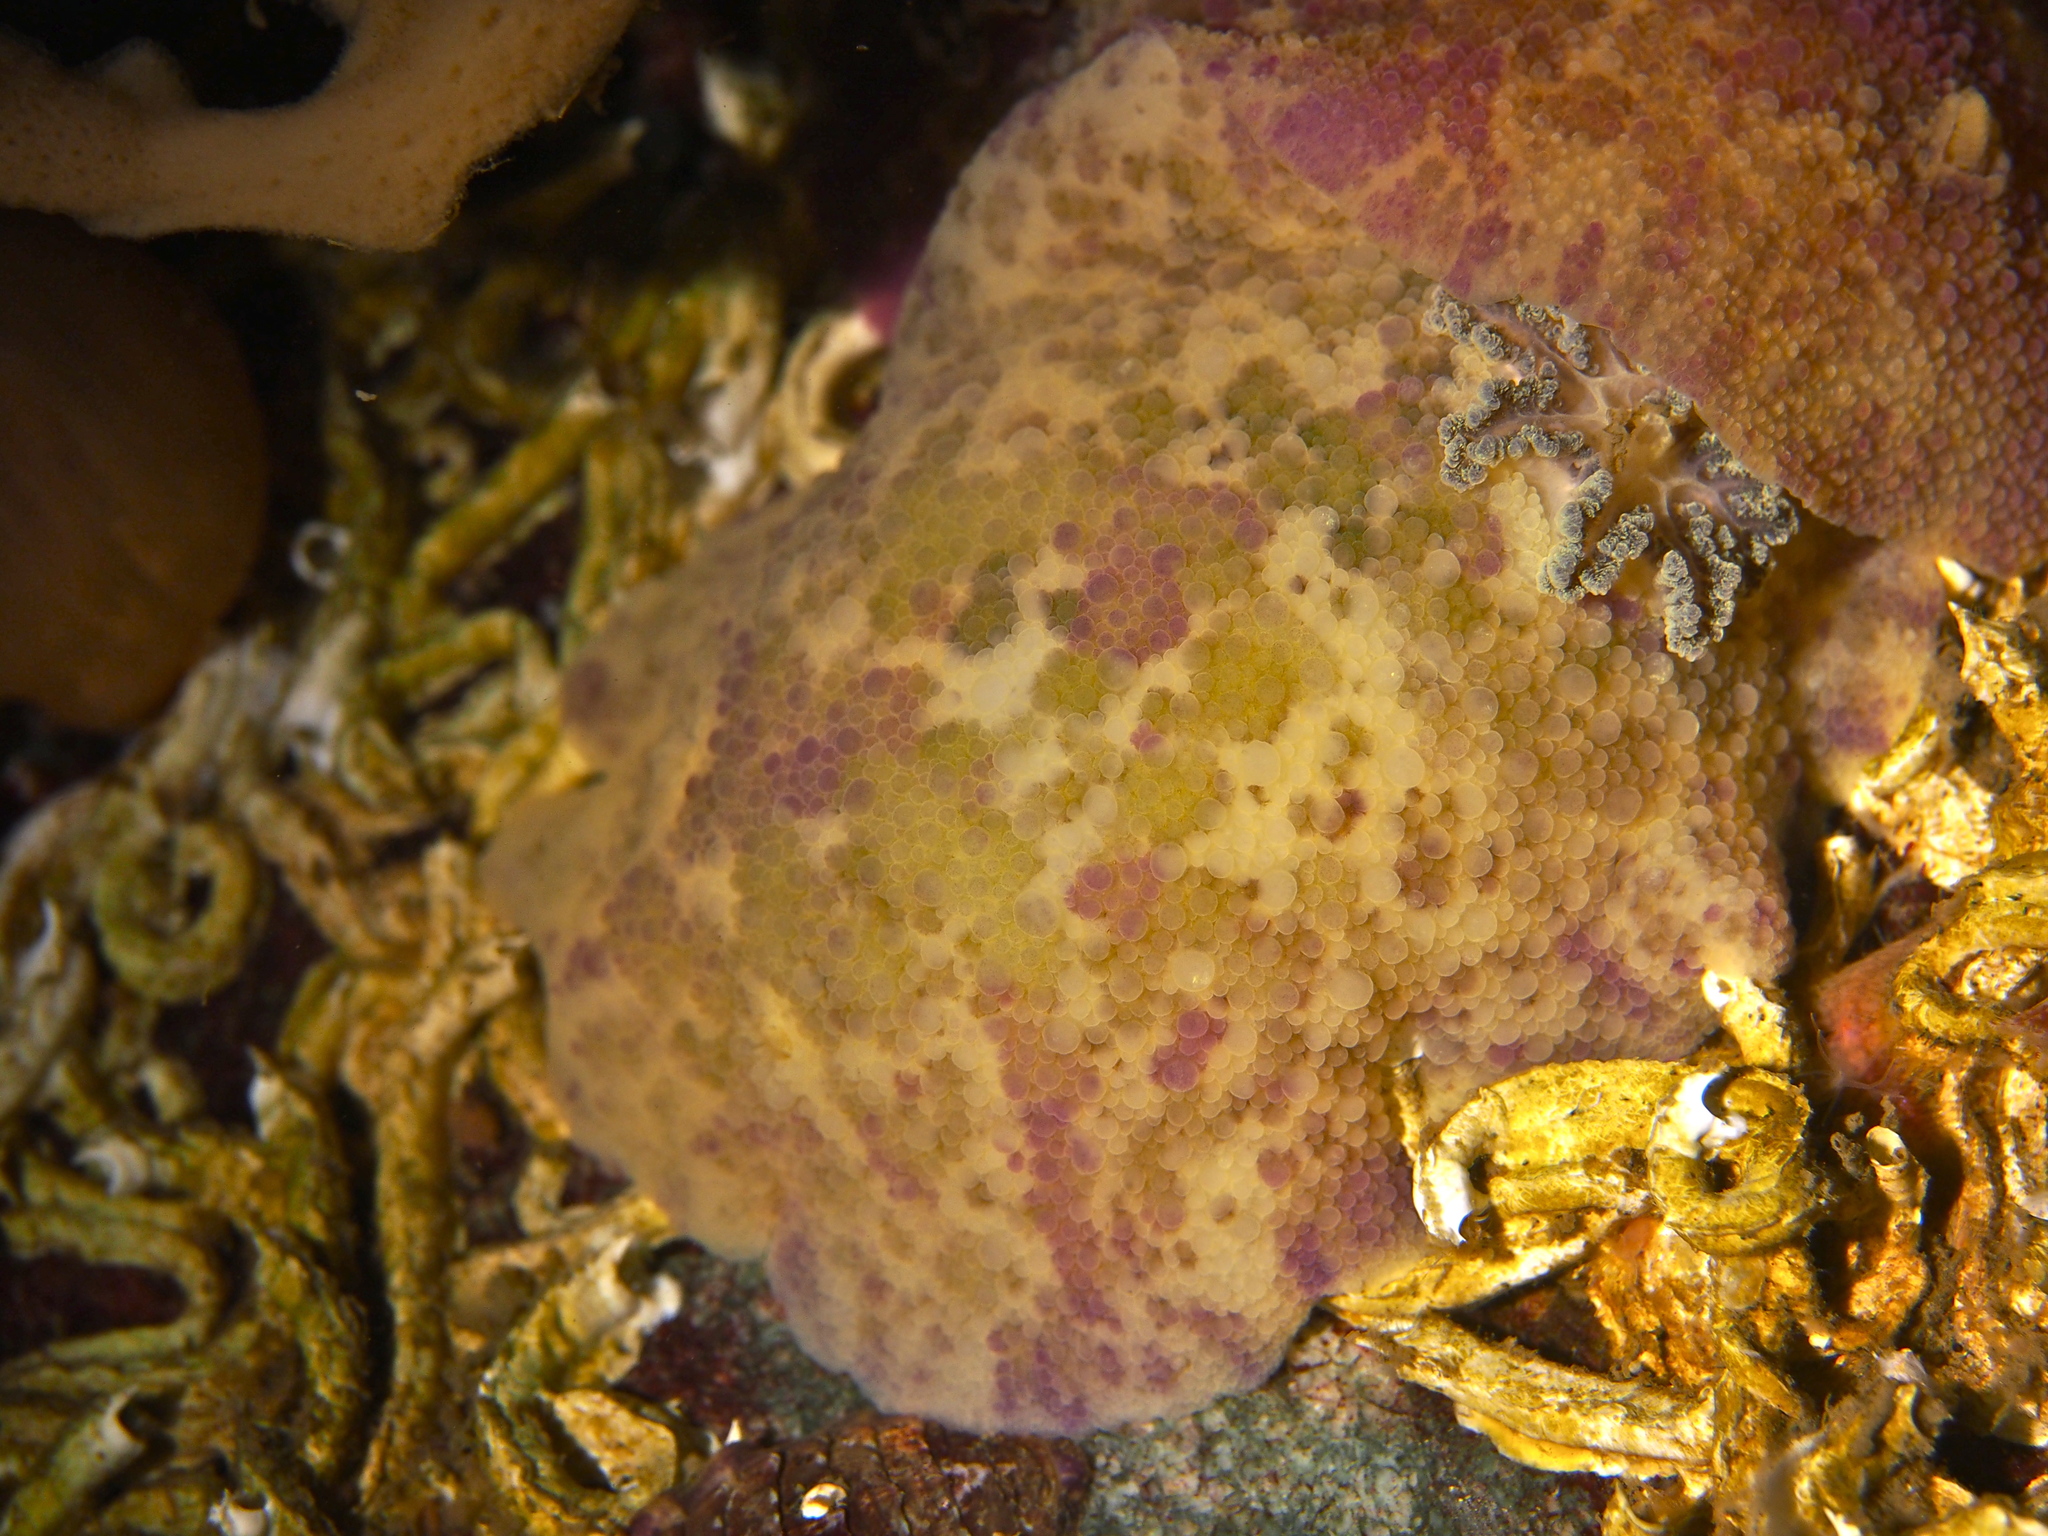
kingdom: Animalia
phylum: Mollusca
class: Gastropoda
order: Nudibranchia
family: Dorididae
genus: Doris
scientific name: Doris pseudoargus
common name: Sea lemon
